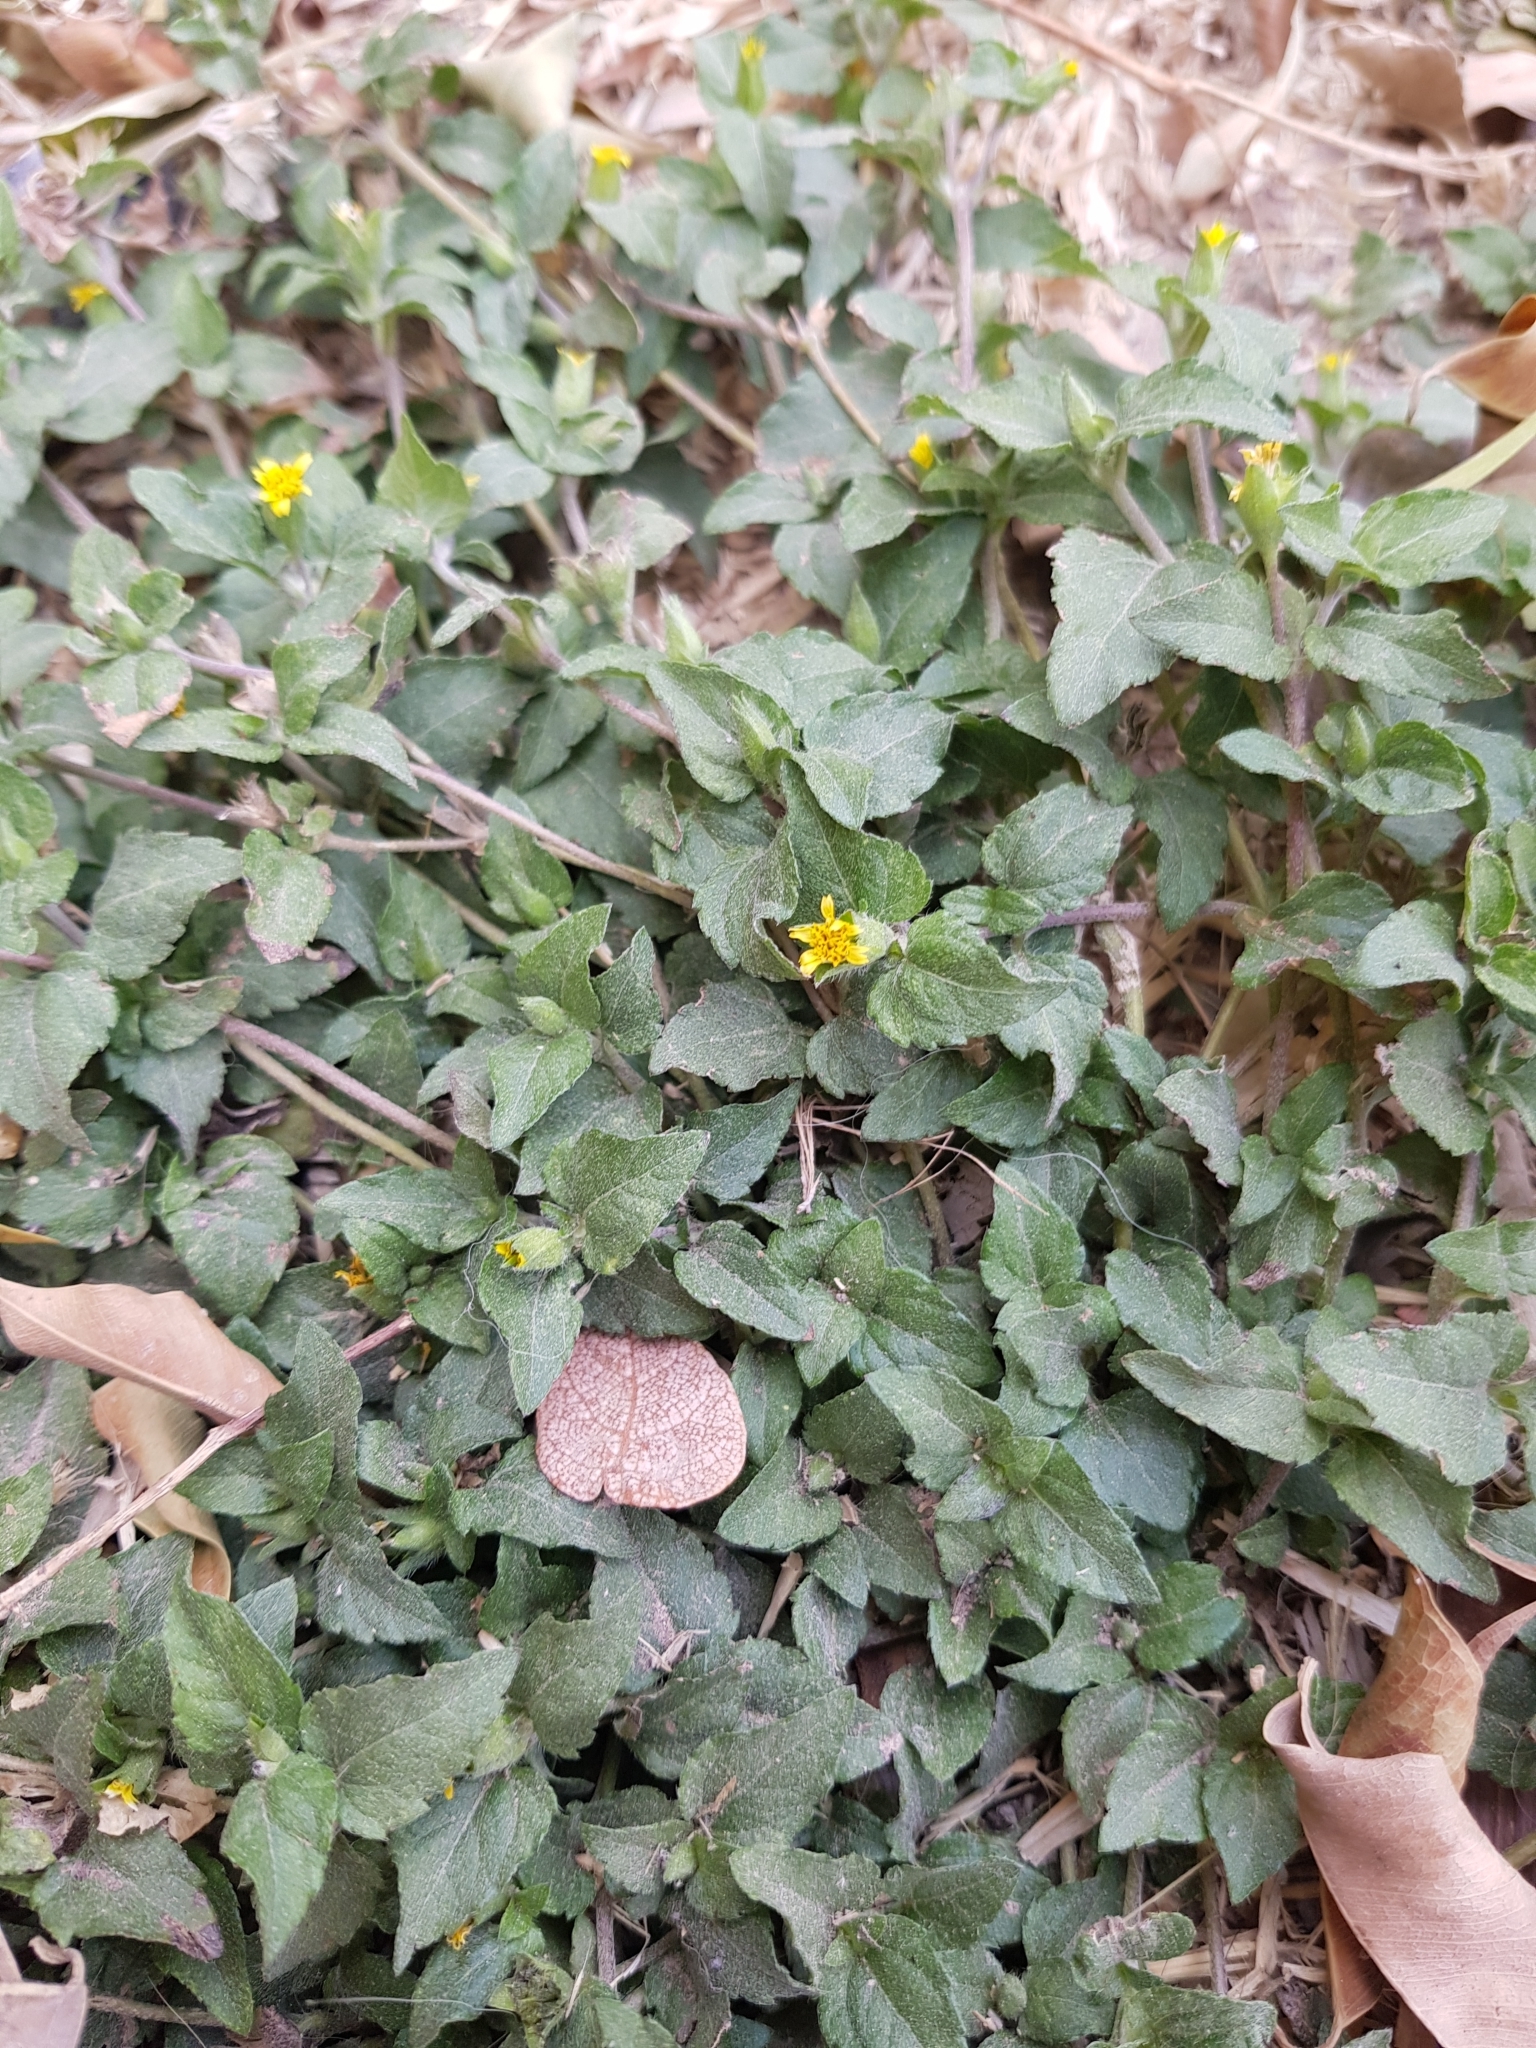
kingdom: Plantae
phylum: Tracheophyta
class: Magnoliopsida
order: Asterales
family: Asteraceae
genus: Calyptocarpus
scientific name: Calyptocarpus vialis
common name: Straggler daisy
